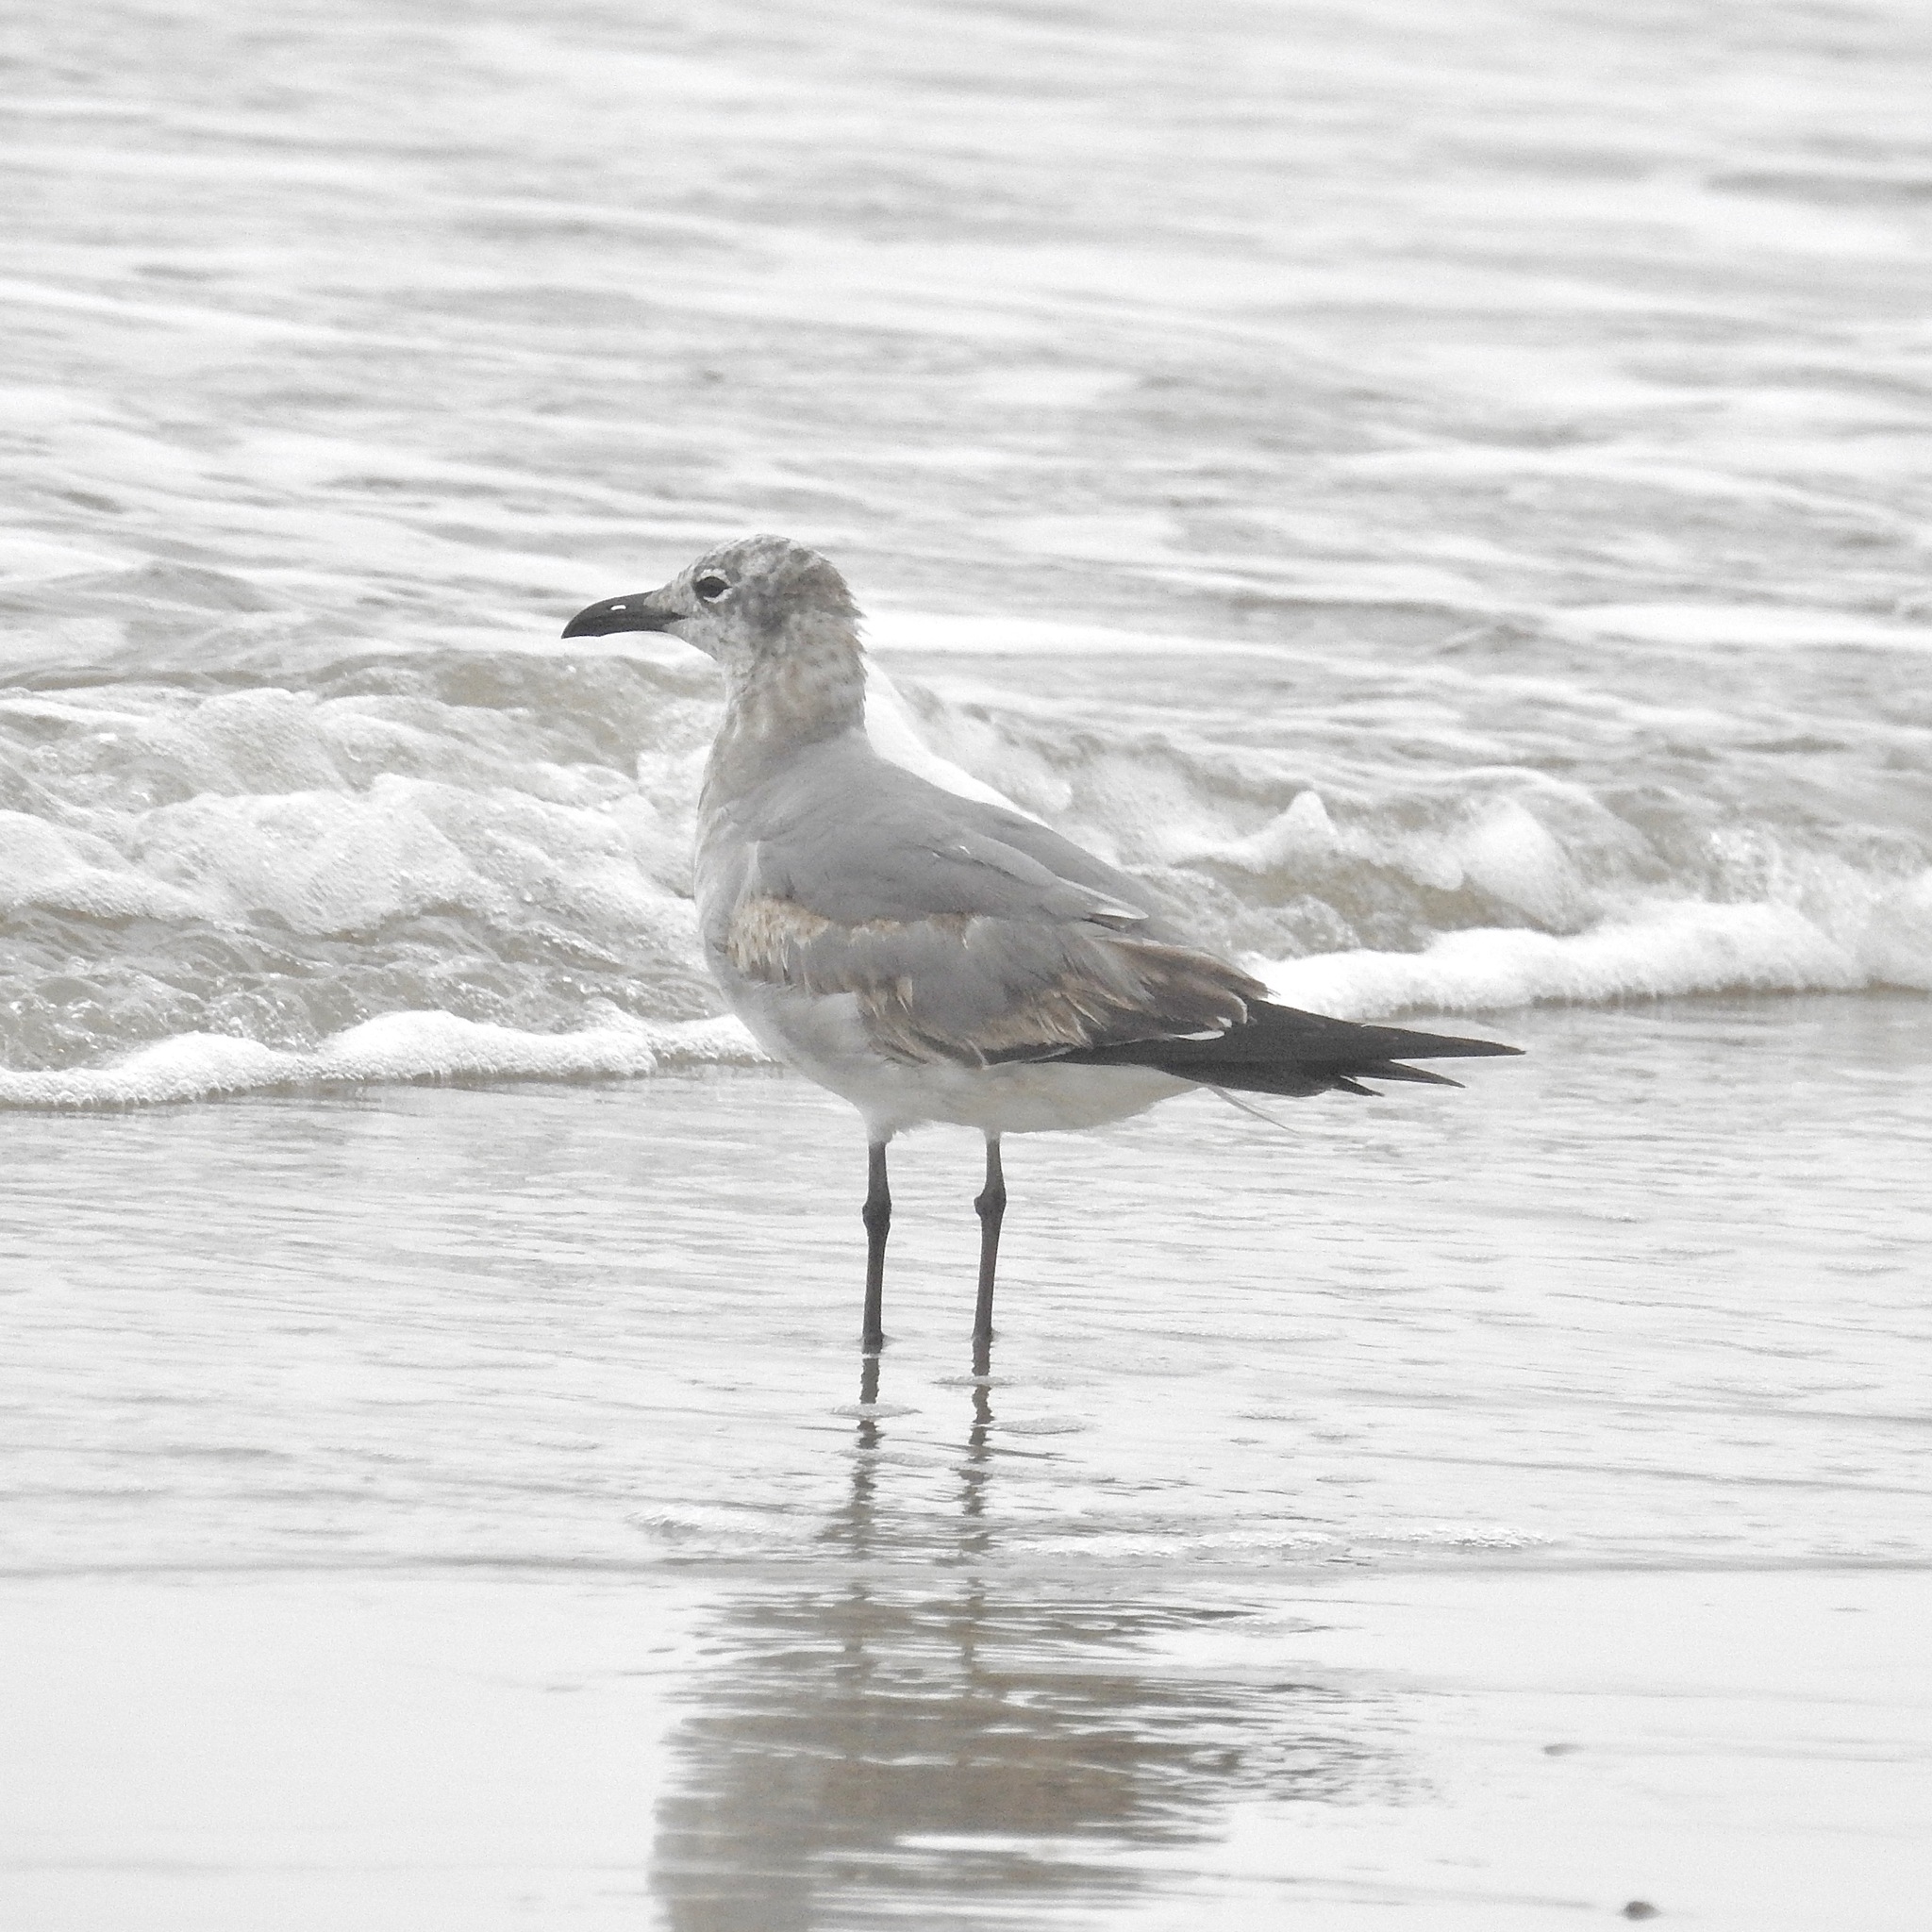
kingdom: Animalia
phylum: Chordata
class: Aves
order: Charadriiformes
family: Laridae
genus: Leucophaeus
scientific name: Leucophaeus atricilla
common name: Laughing gull
